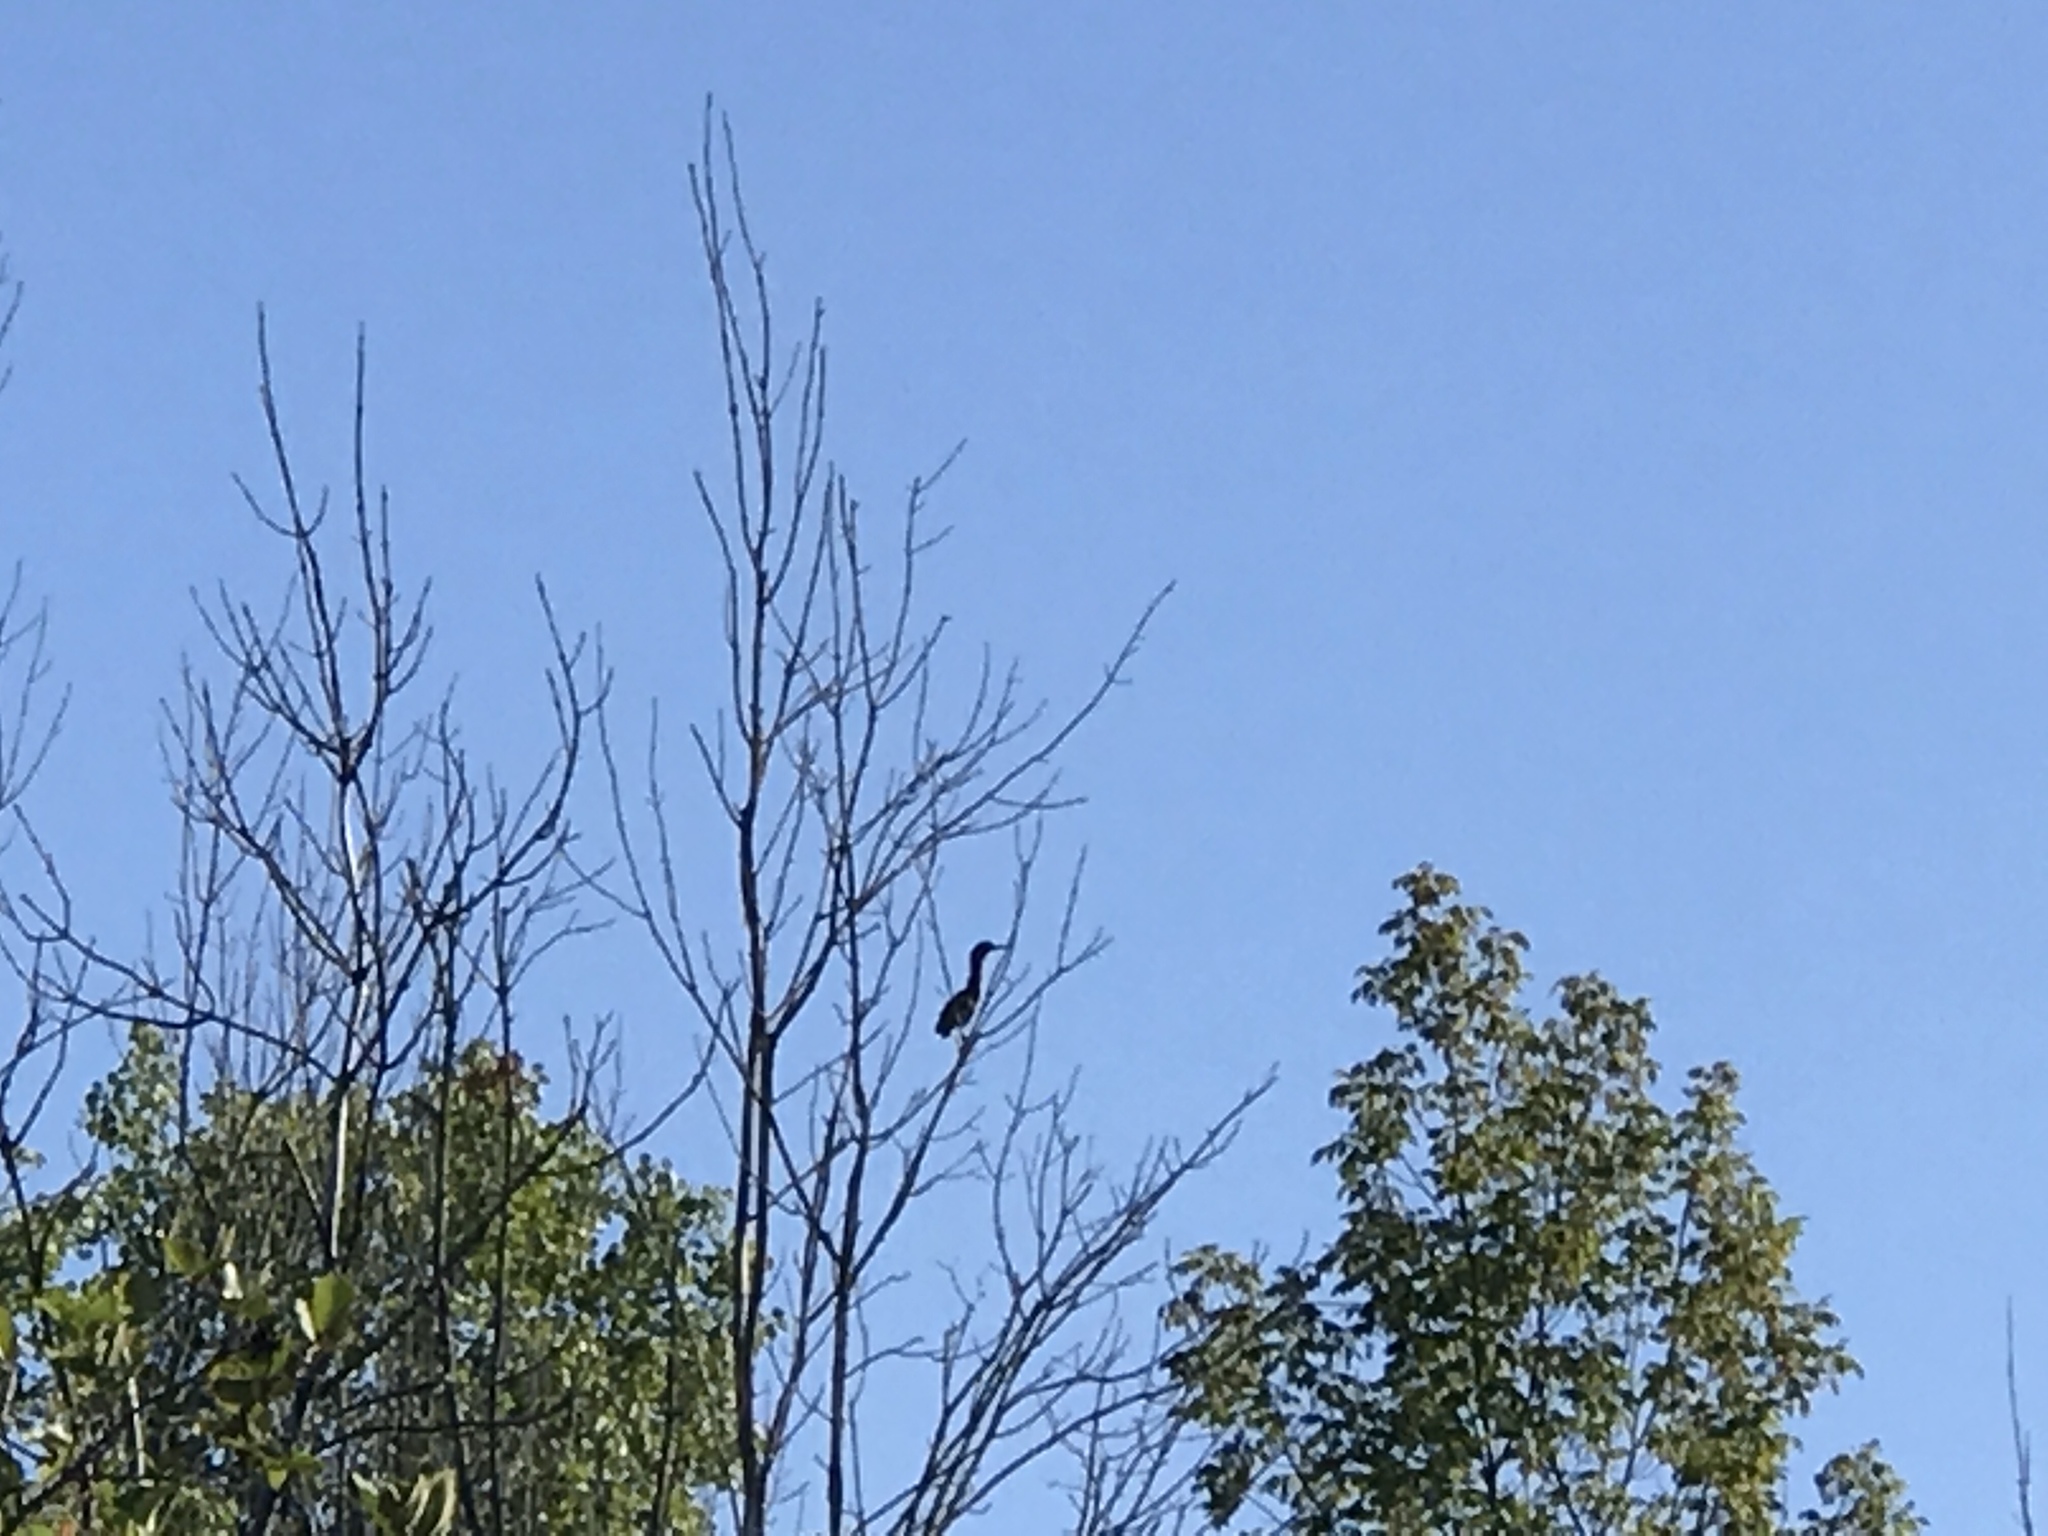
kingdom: Animalia
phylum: Chordata
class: Aves
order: Pelecaniformes
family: Ardeidae
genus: Butorides
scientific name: Butorides virescens
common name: Green heron
